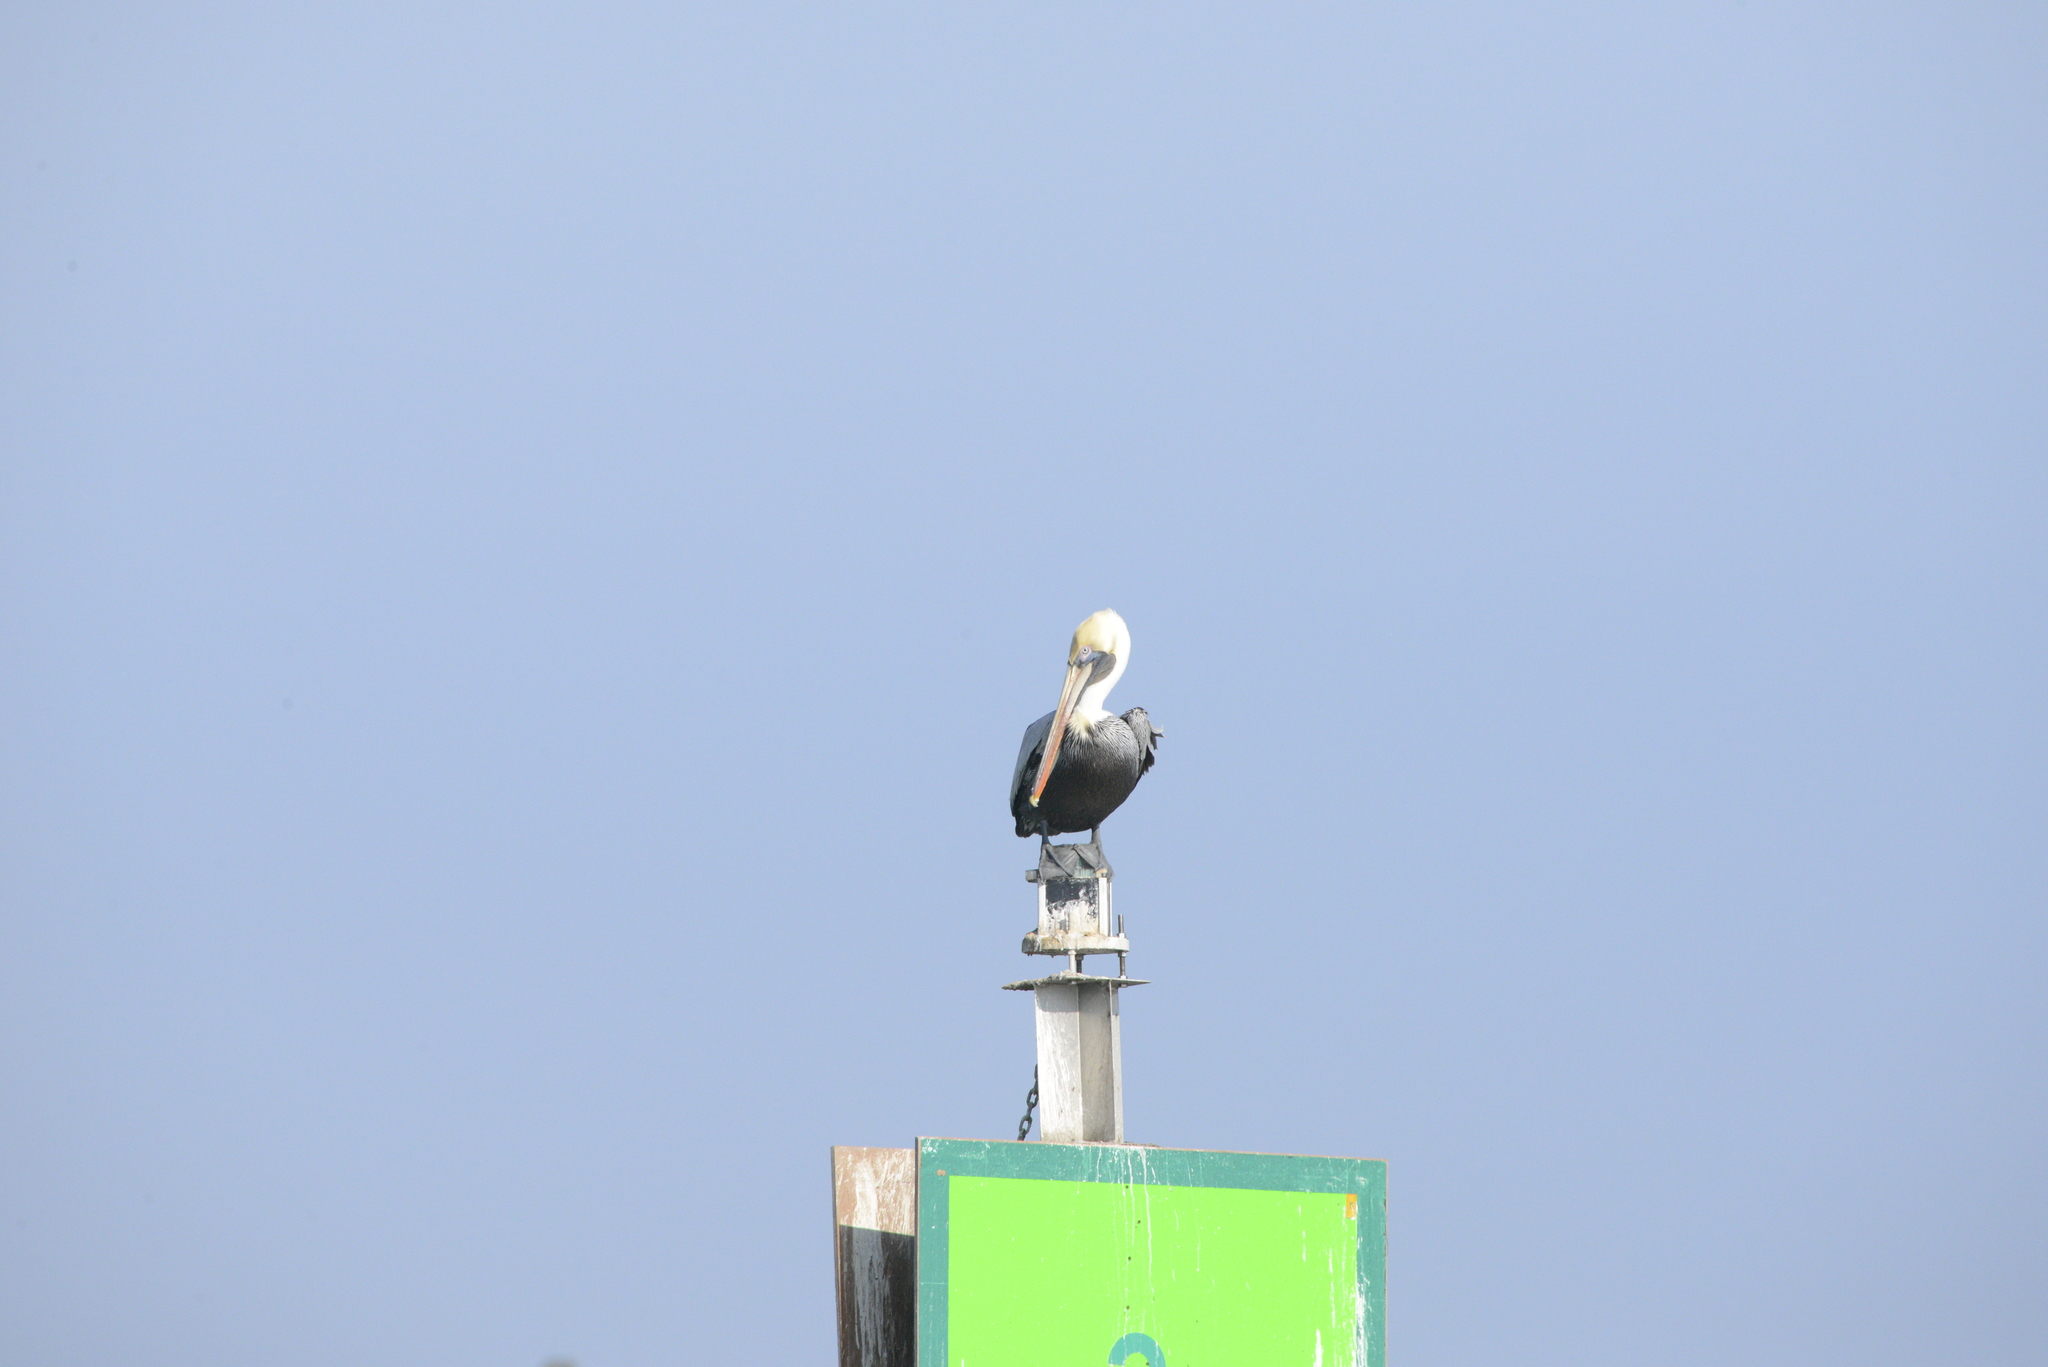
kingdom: Animalia
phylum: Chordata
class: Aves
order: Pelecaniformes
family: Pelecanidae
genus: Pelecanus
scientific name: Pelecanus occidentalis
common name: Brown pelican
